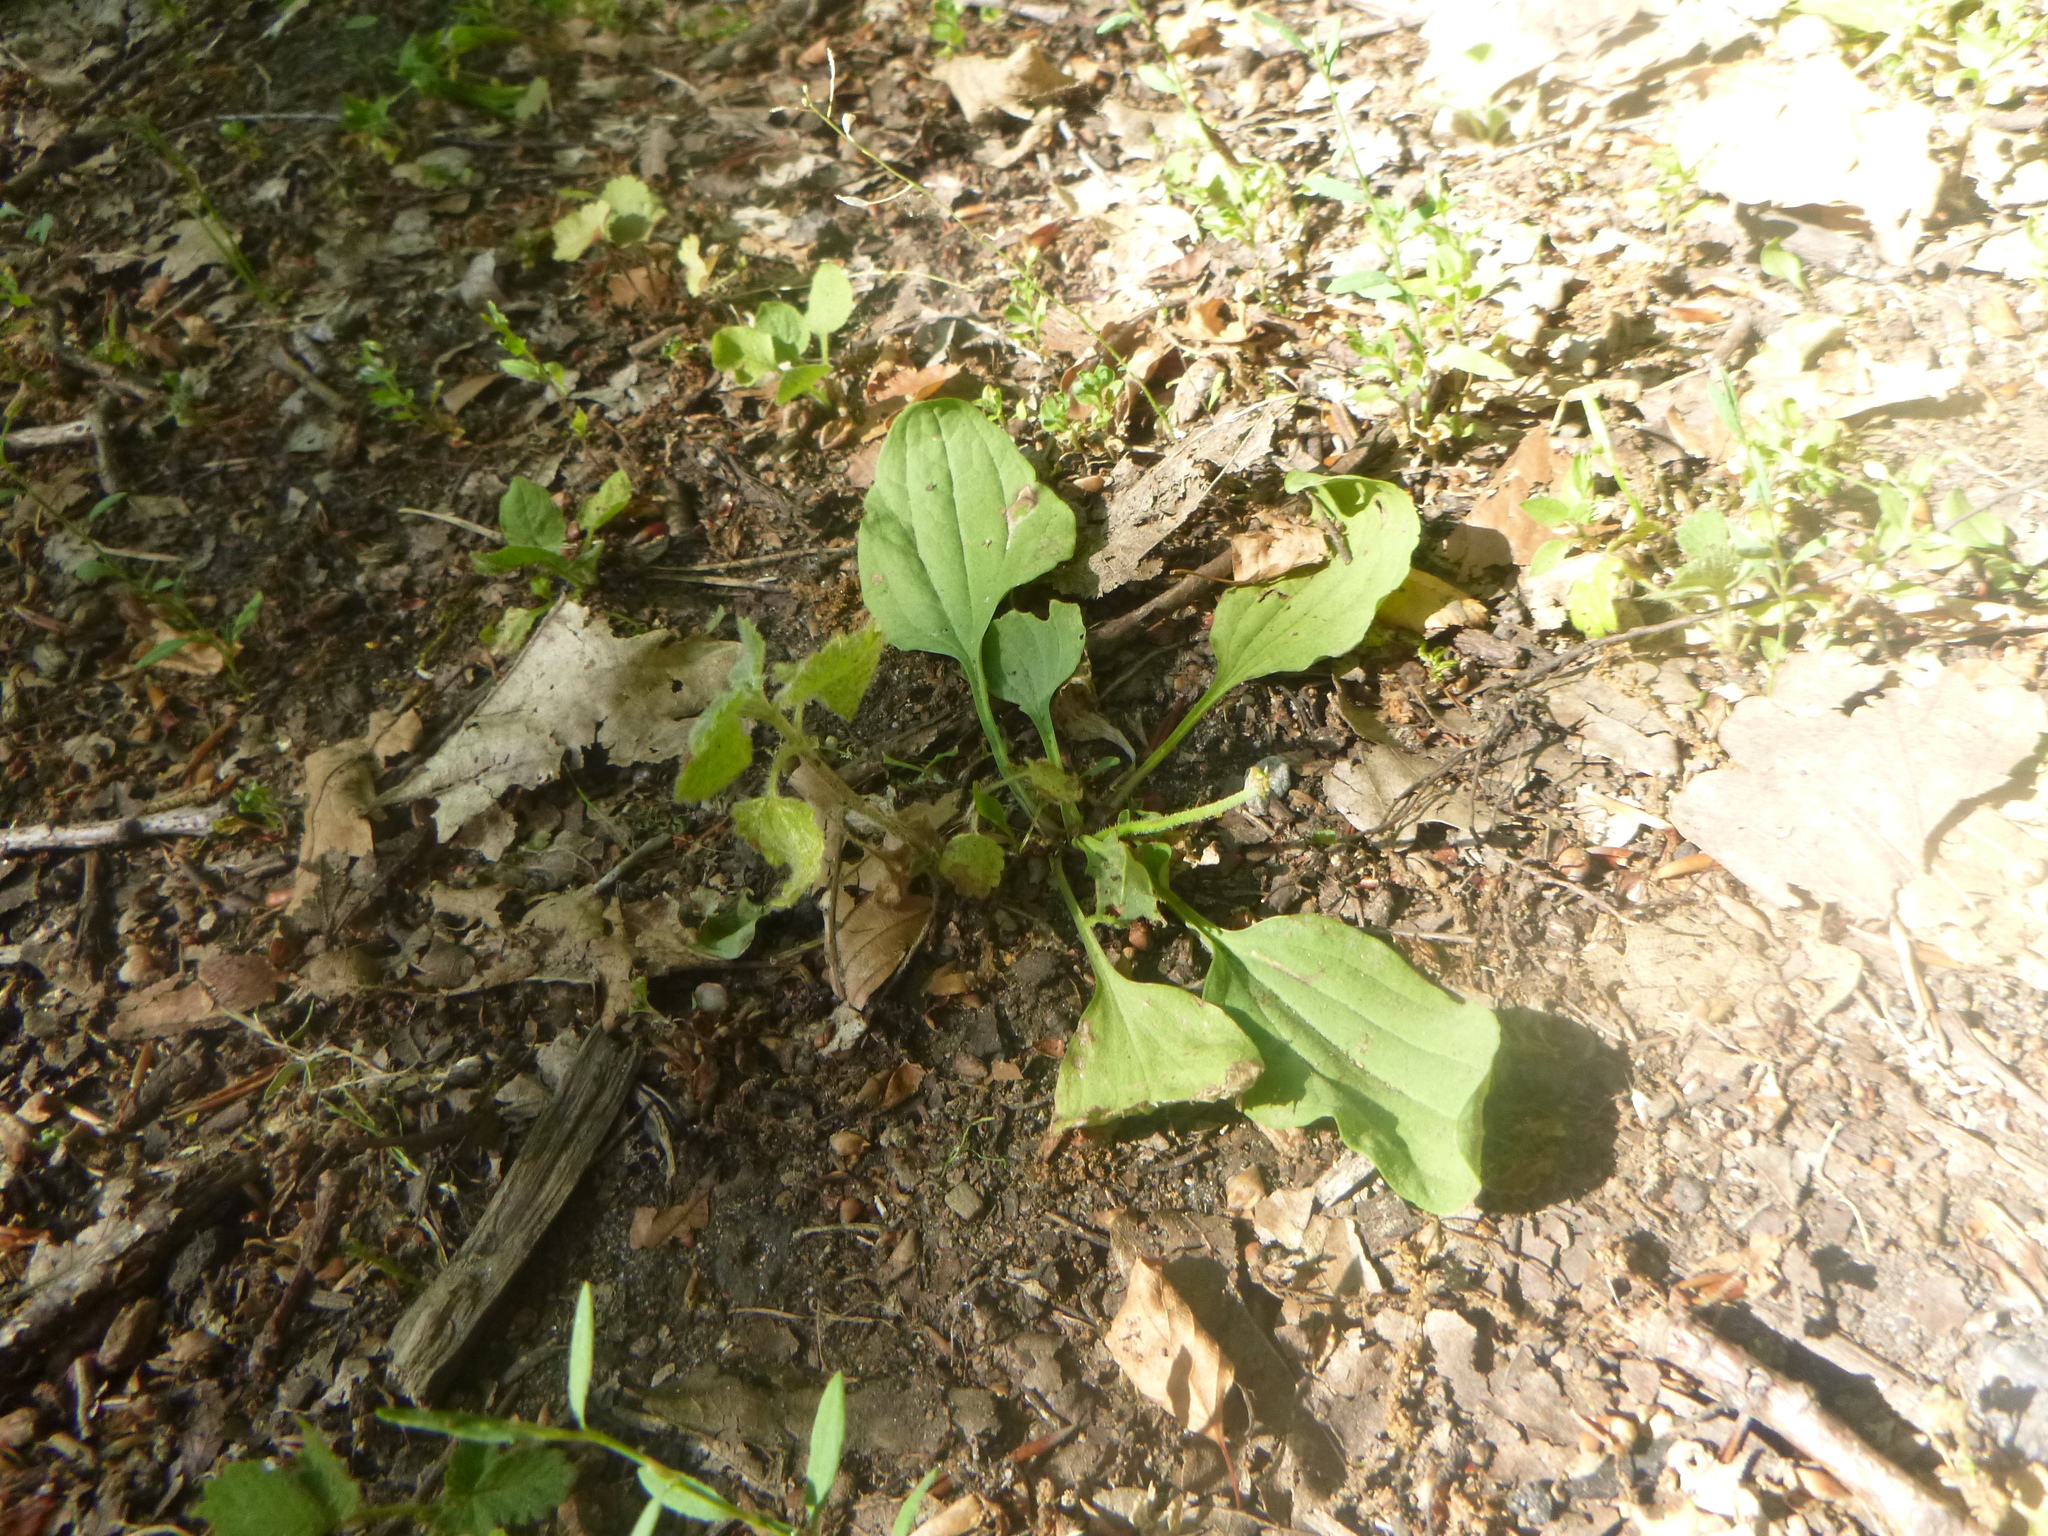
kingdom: Plantae
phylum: Tracheophyta
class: Magnoliopsida
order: Lamiales
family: Plantaginaceae
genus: Plantago
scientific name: Plantago major
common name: Common plantain
